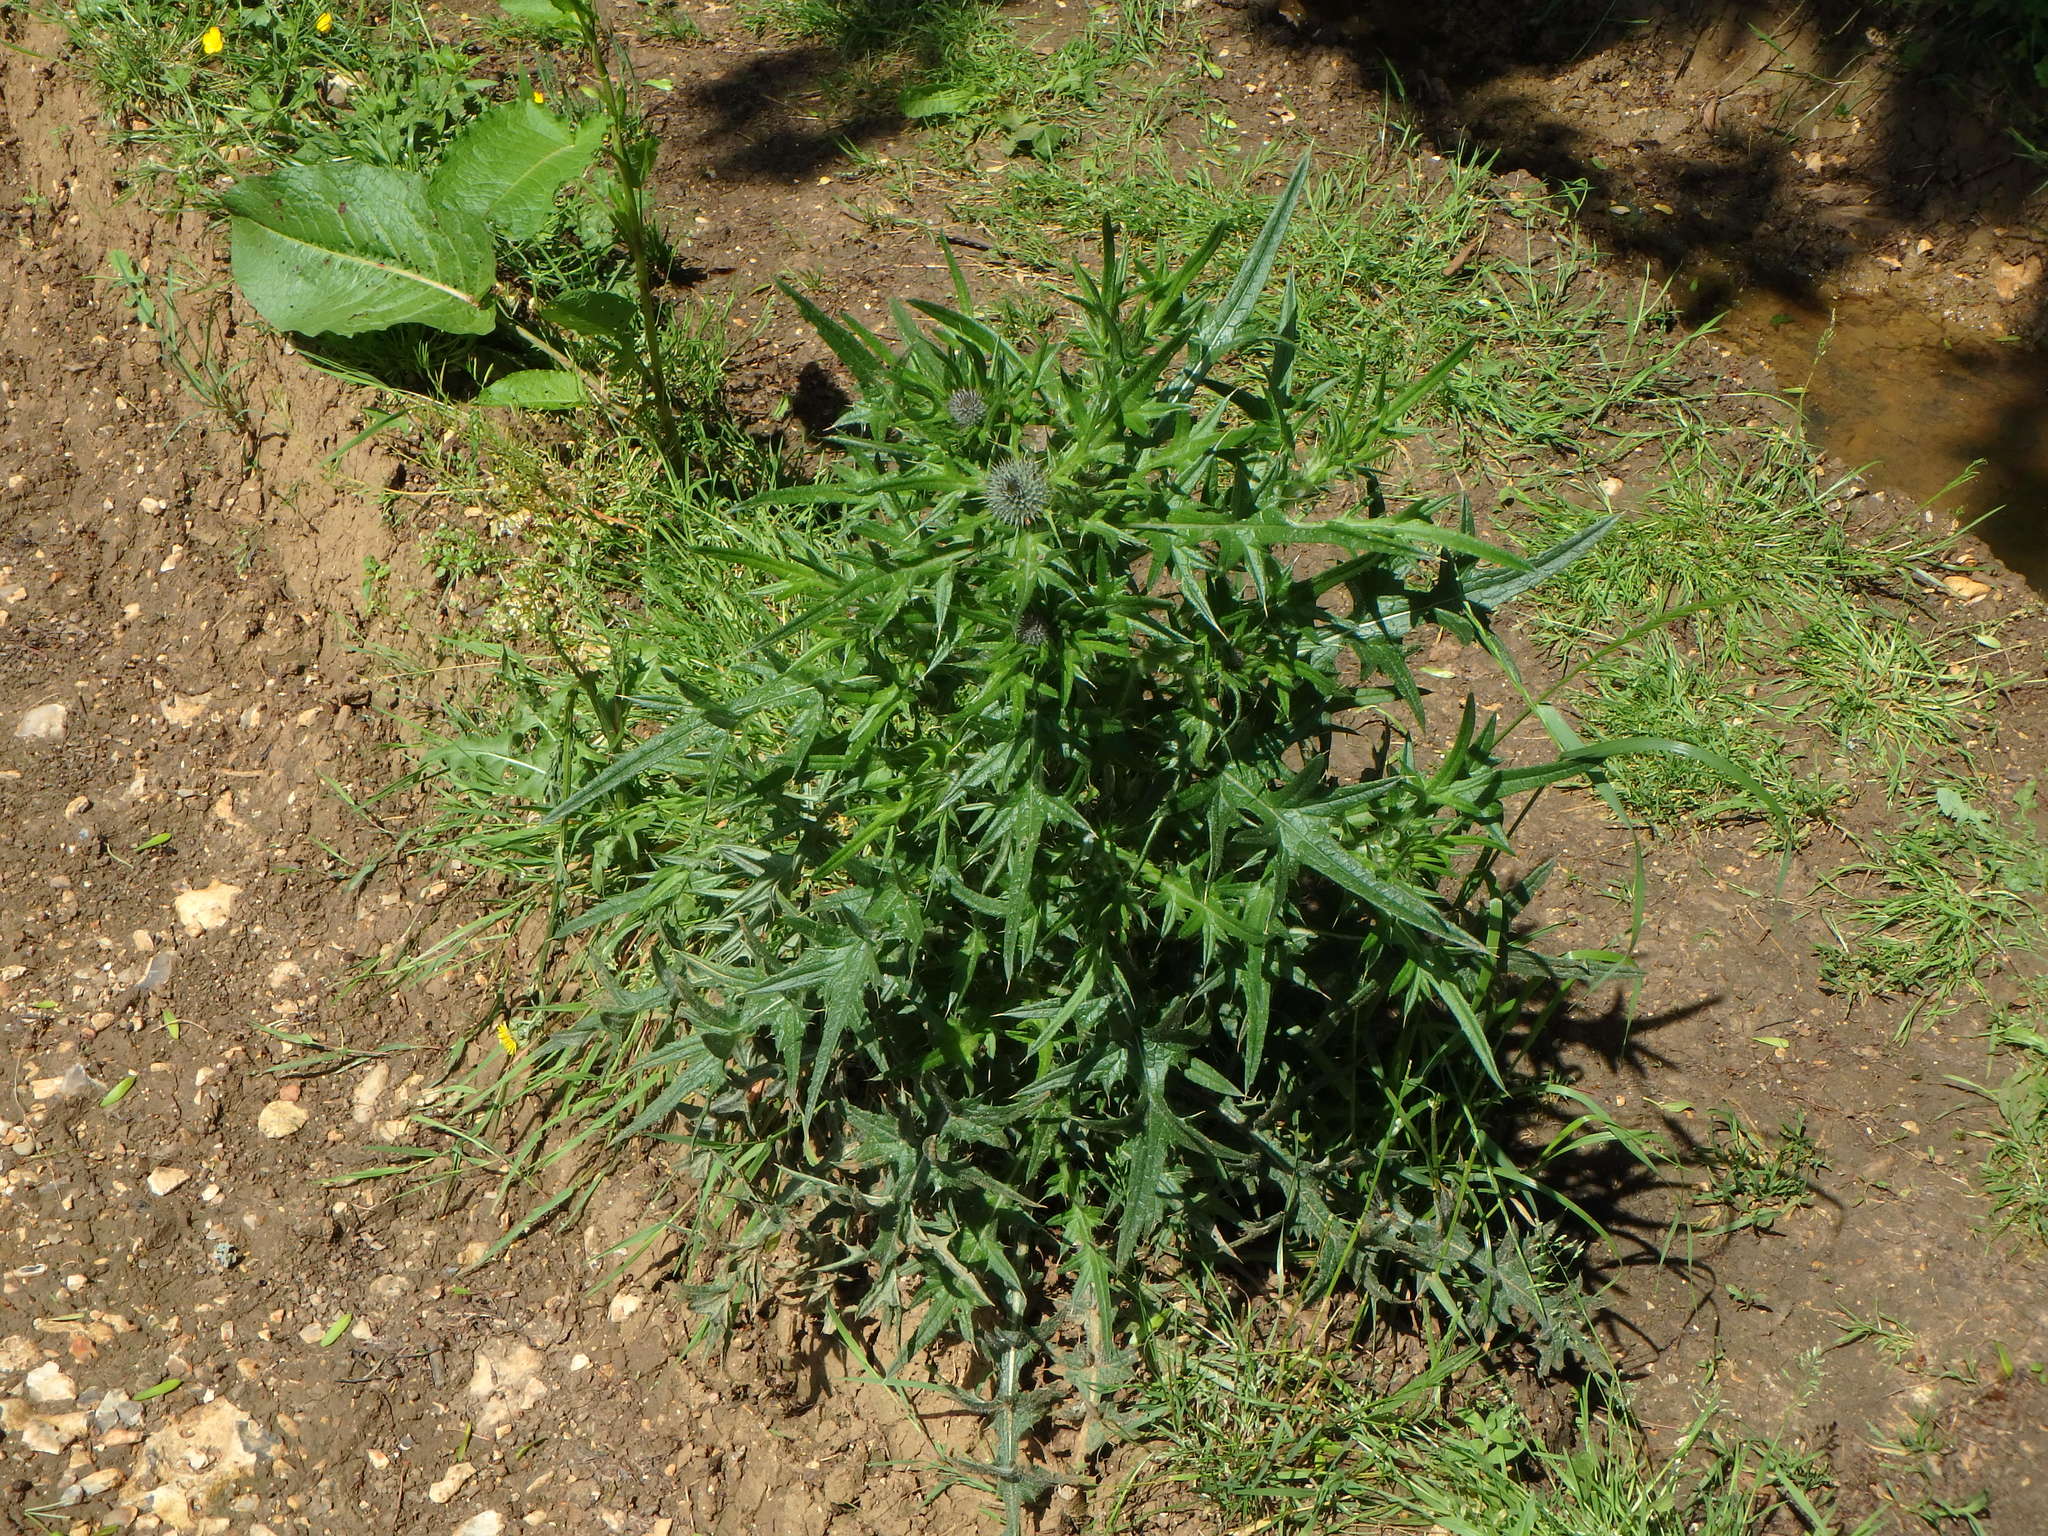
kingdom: Plantae
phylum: Tracheophyta
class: Magnoliopsida
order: Asterales
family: Asteraceae
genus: Cirsium
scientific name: Cirsium vulgare
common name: Bull thistle
